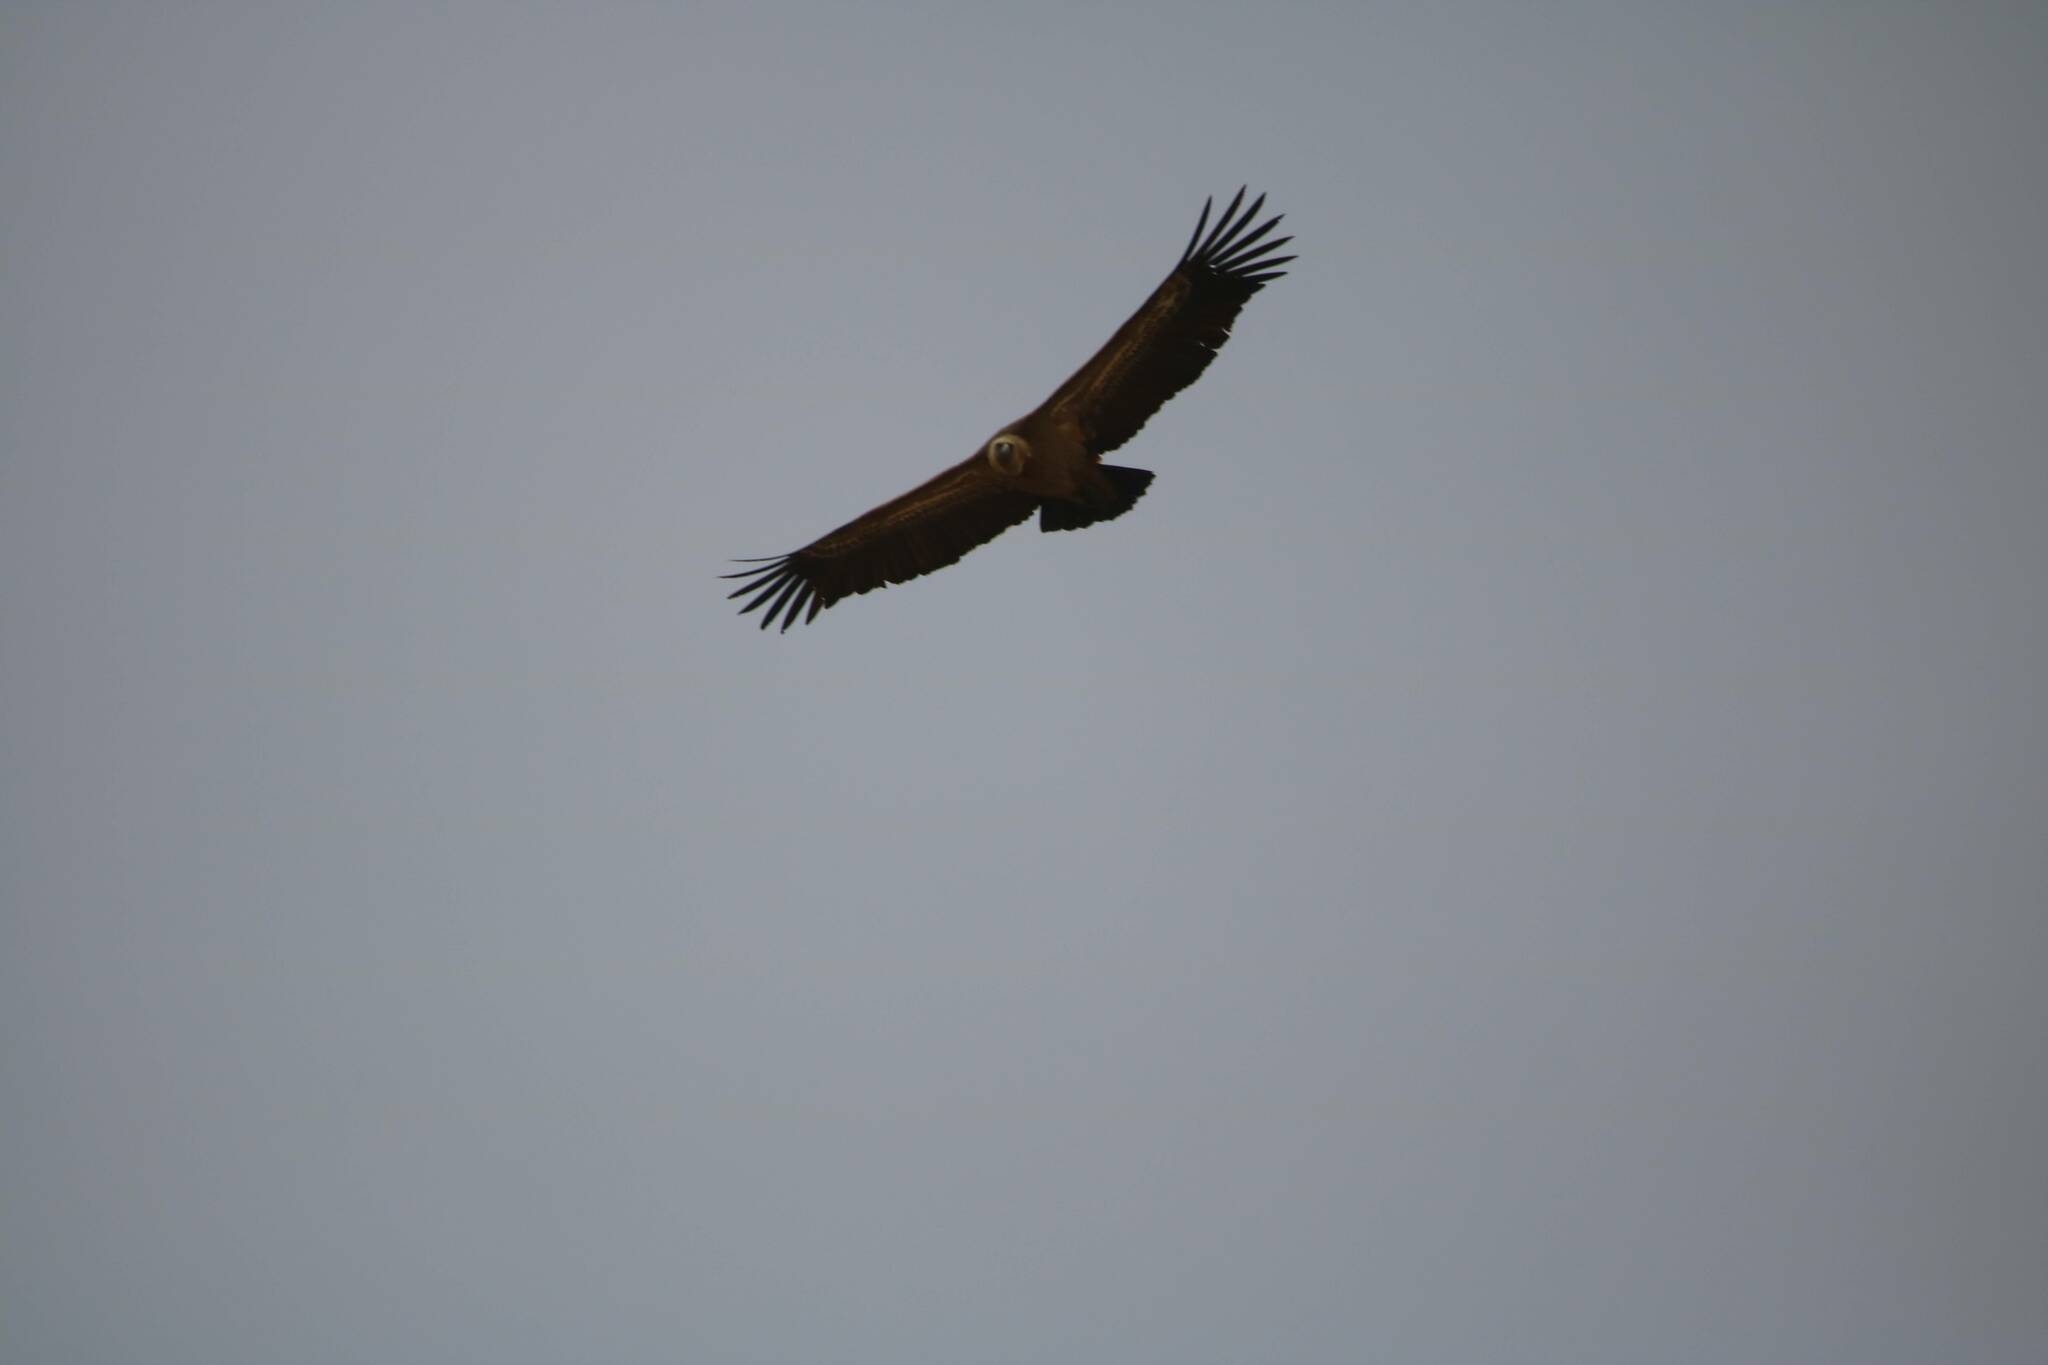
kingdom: Animalia
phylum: Chordata
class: Aves
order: Accipitriformes
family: Accipitridae
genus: Gyps
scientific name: Gyps fulvus
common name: Griffon vulture
